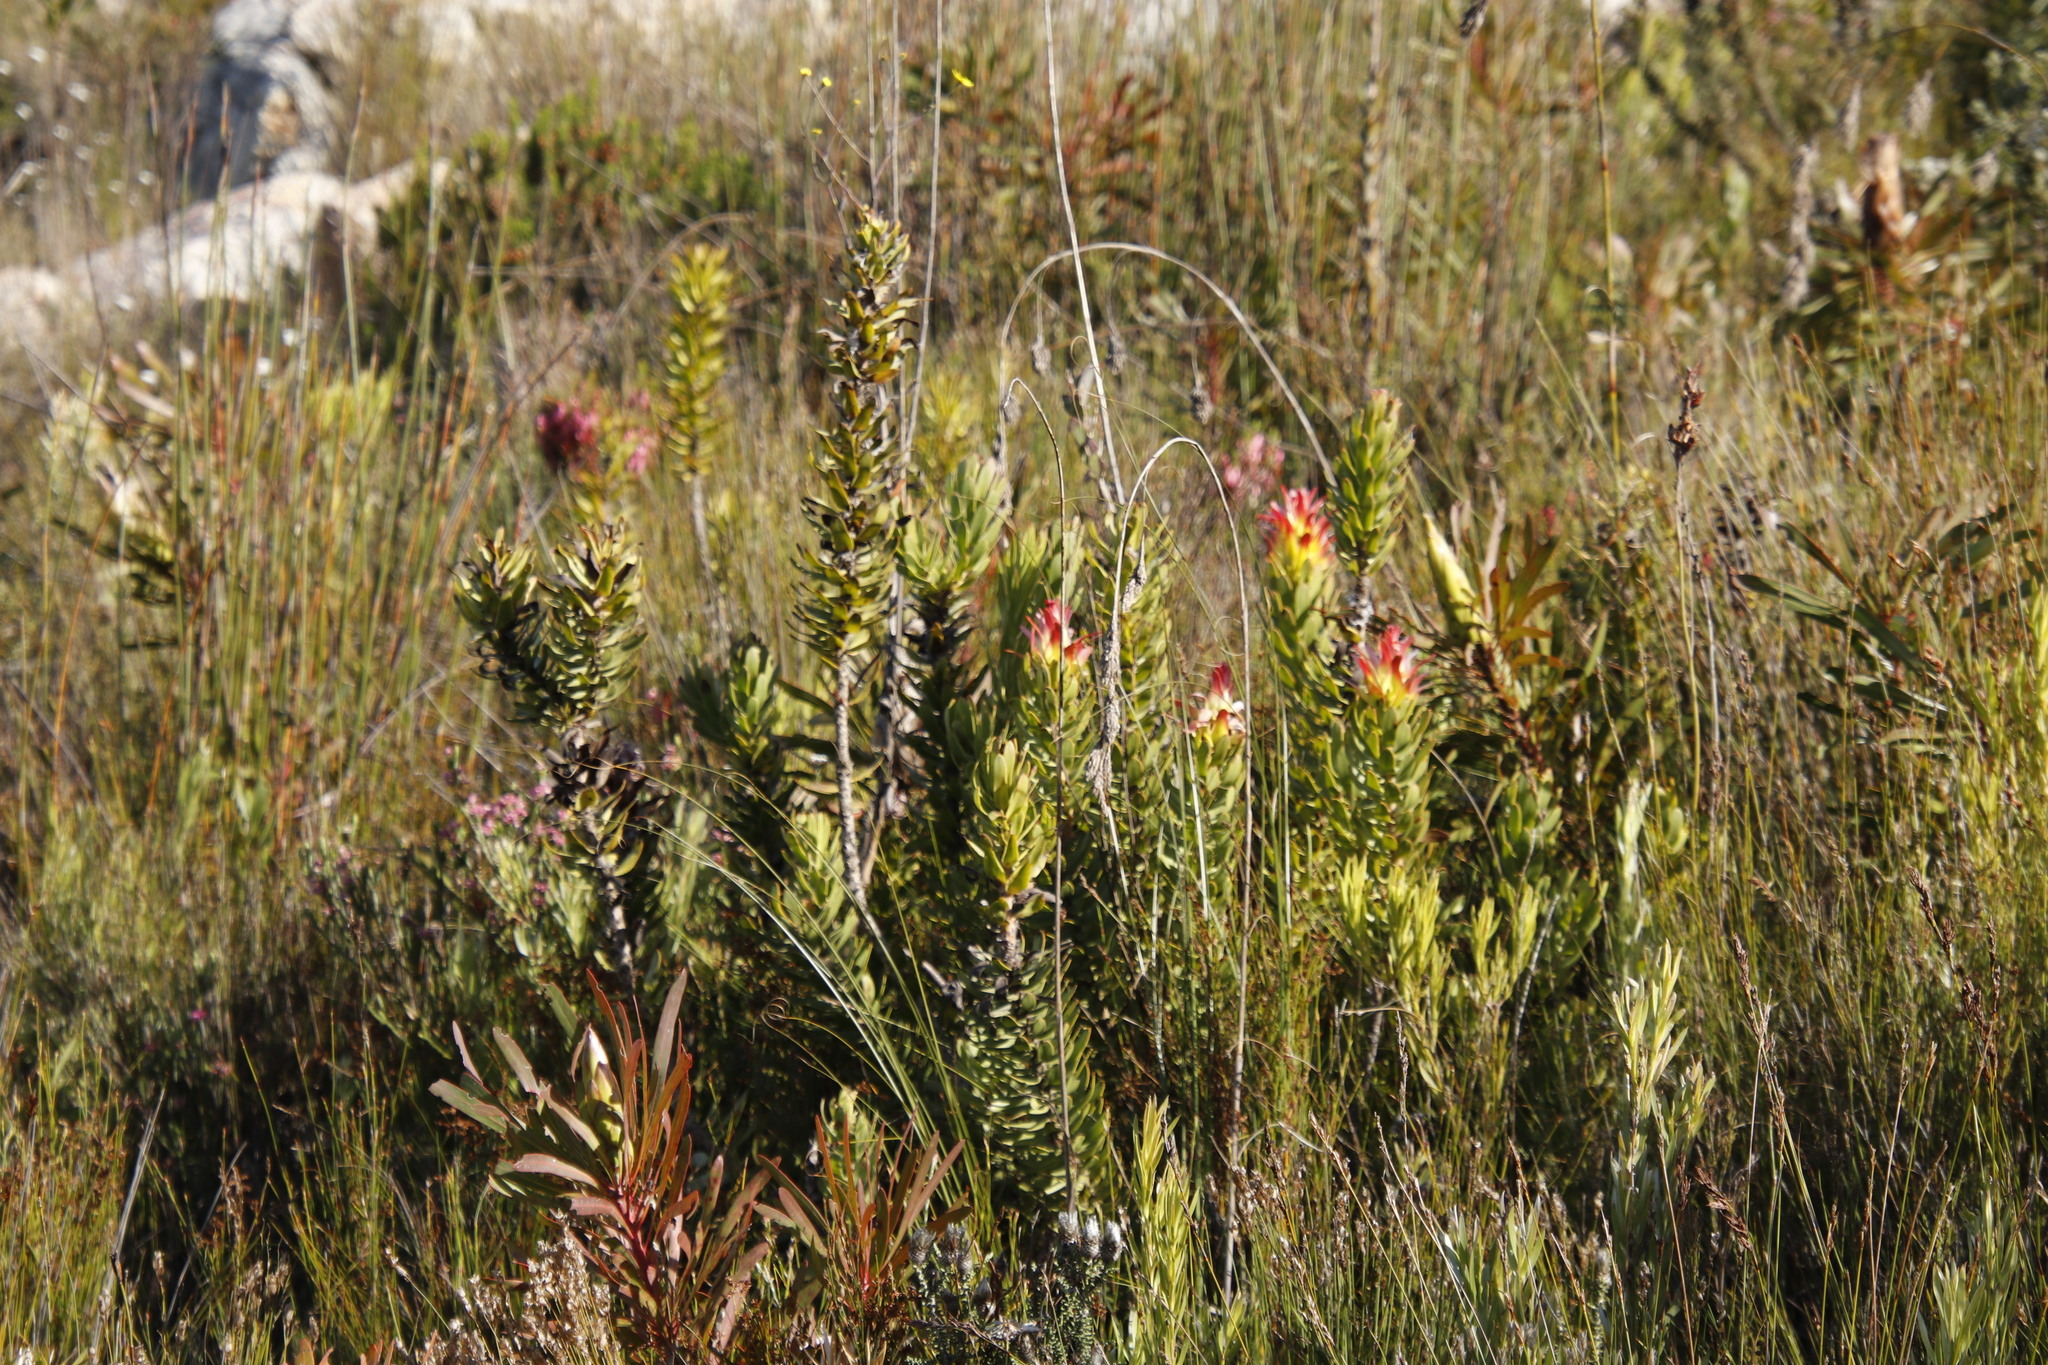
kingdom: Plantae
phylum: Tracheophyta
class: Magnoliopsida
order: Proteales
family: Proteaceae
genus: Mimetes
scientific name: Mimetes cucullatus
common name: Common pagoda
